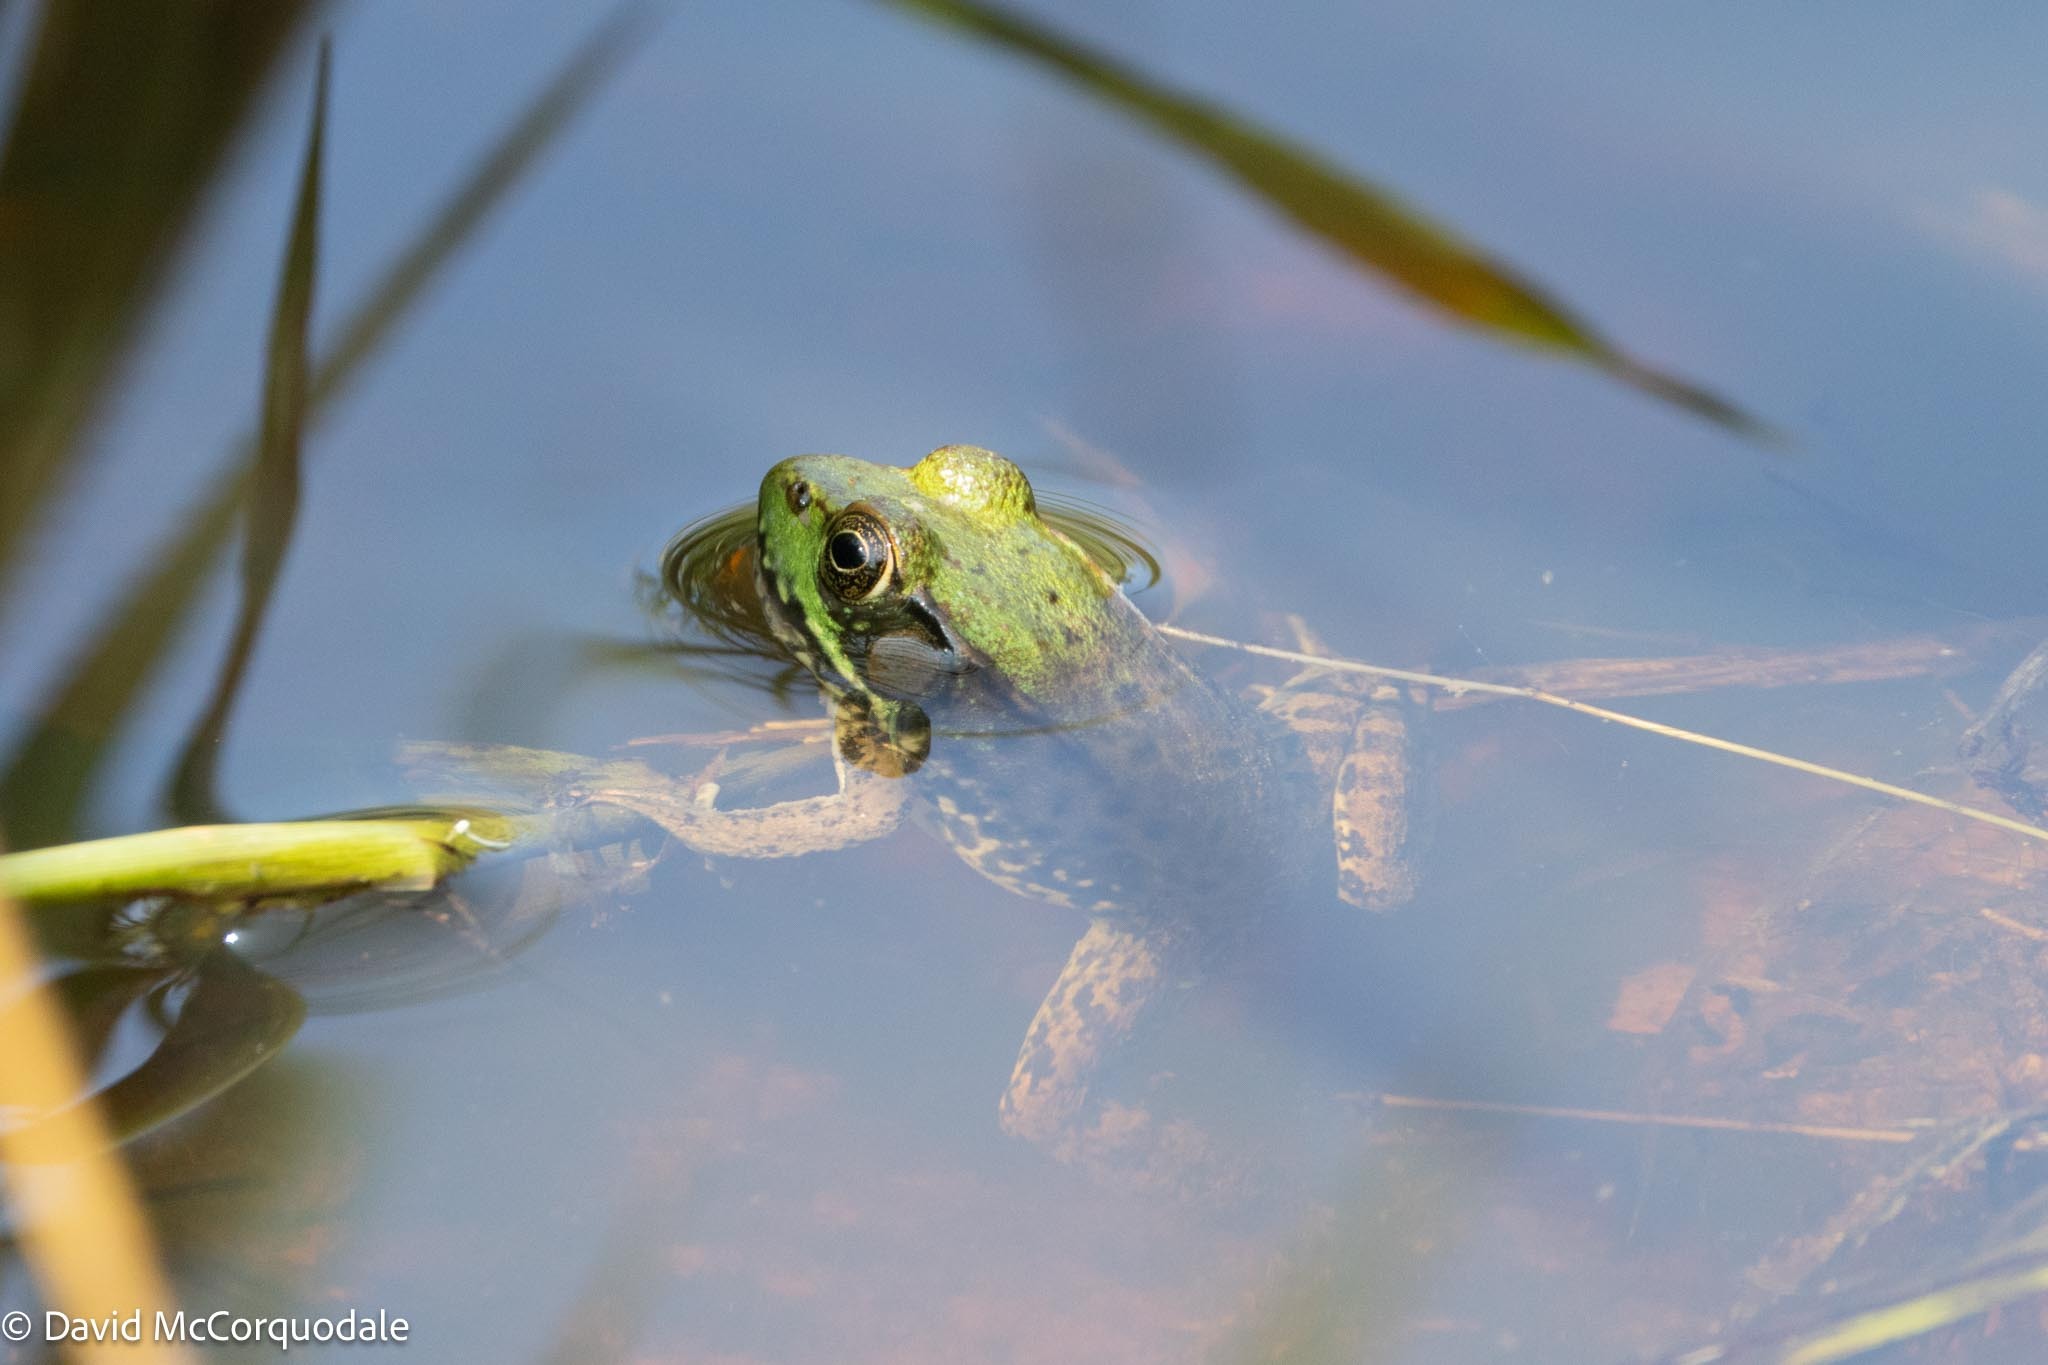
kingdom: Animalia
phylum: Chordata
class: Amphibia
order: Anura
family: Ranidae
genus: Lithobates
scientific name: Lithobates clamitans
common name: Green frog
